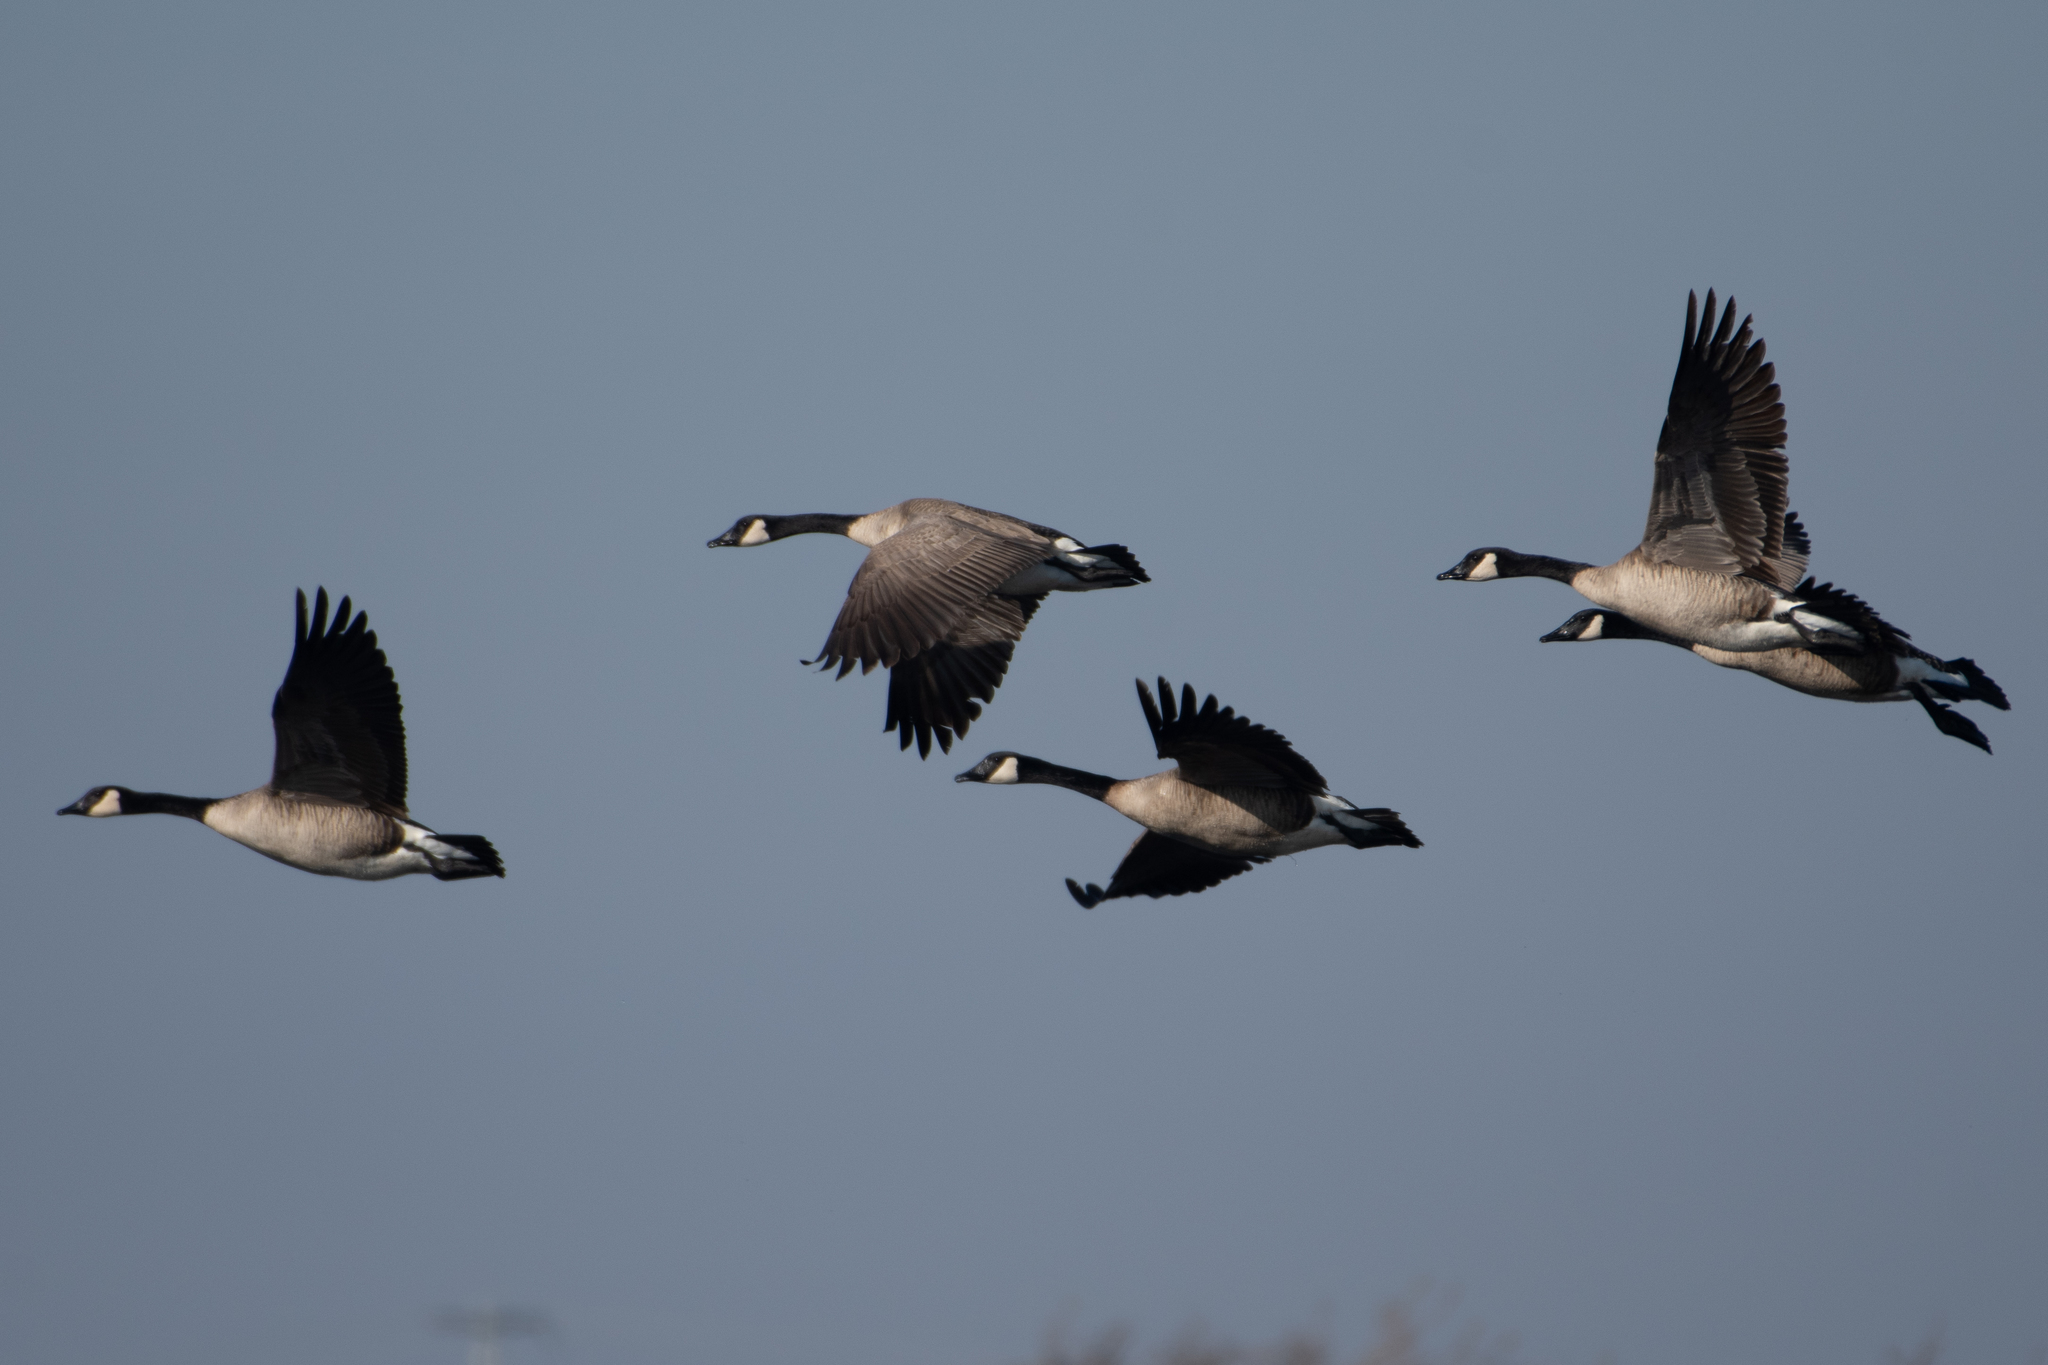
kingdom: Animalia
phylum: Chordata
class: Aves
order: Anseriformes
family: Anatidae
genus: Branta
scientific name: Branta canadensis
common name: Canada goose
